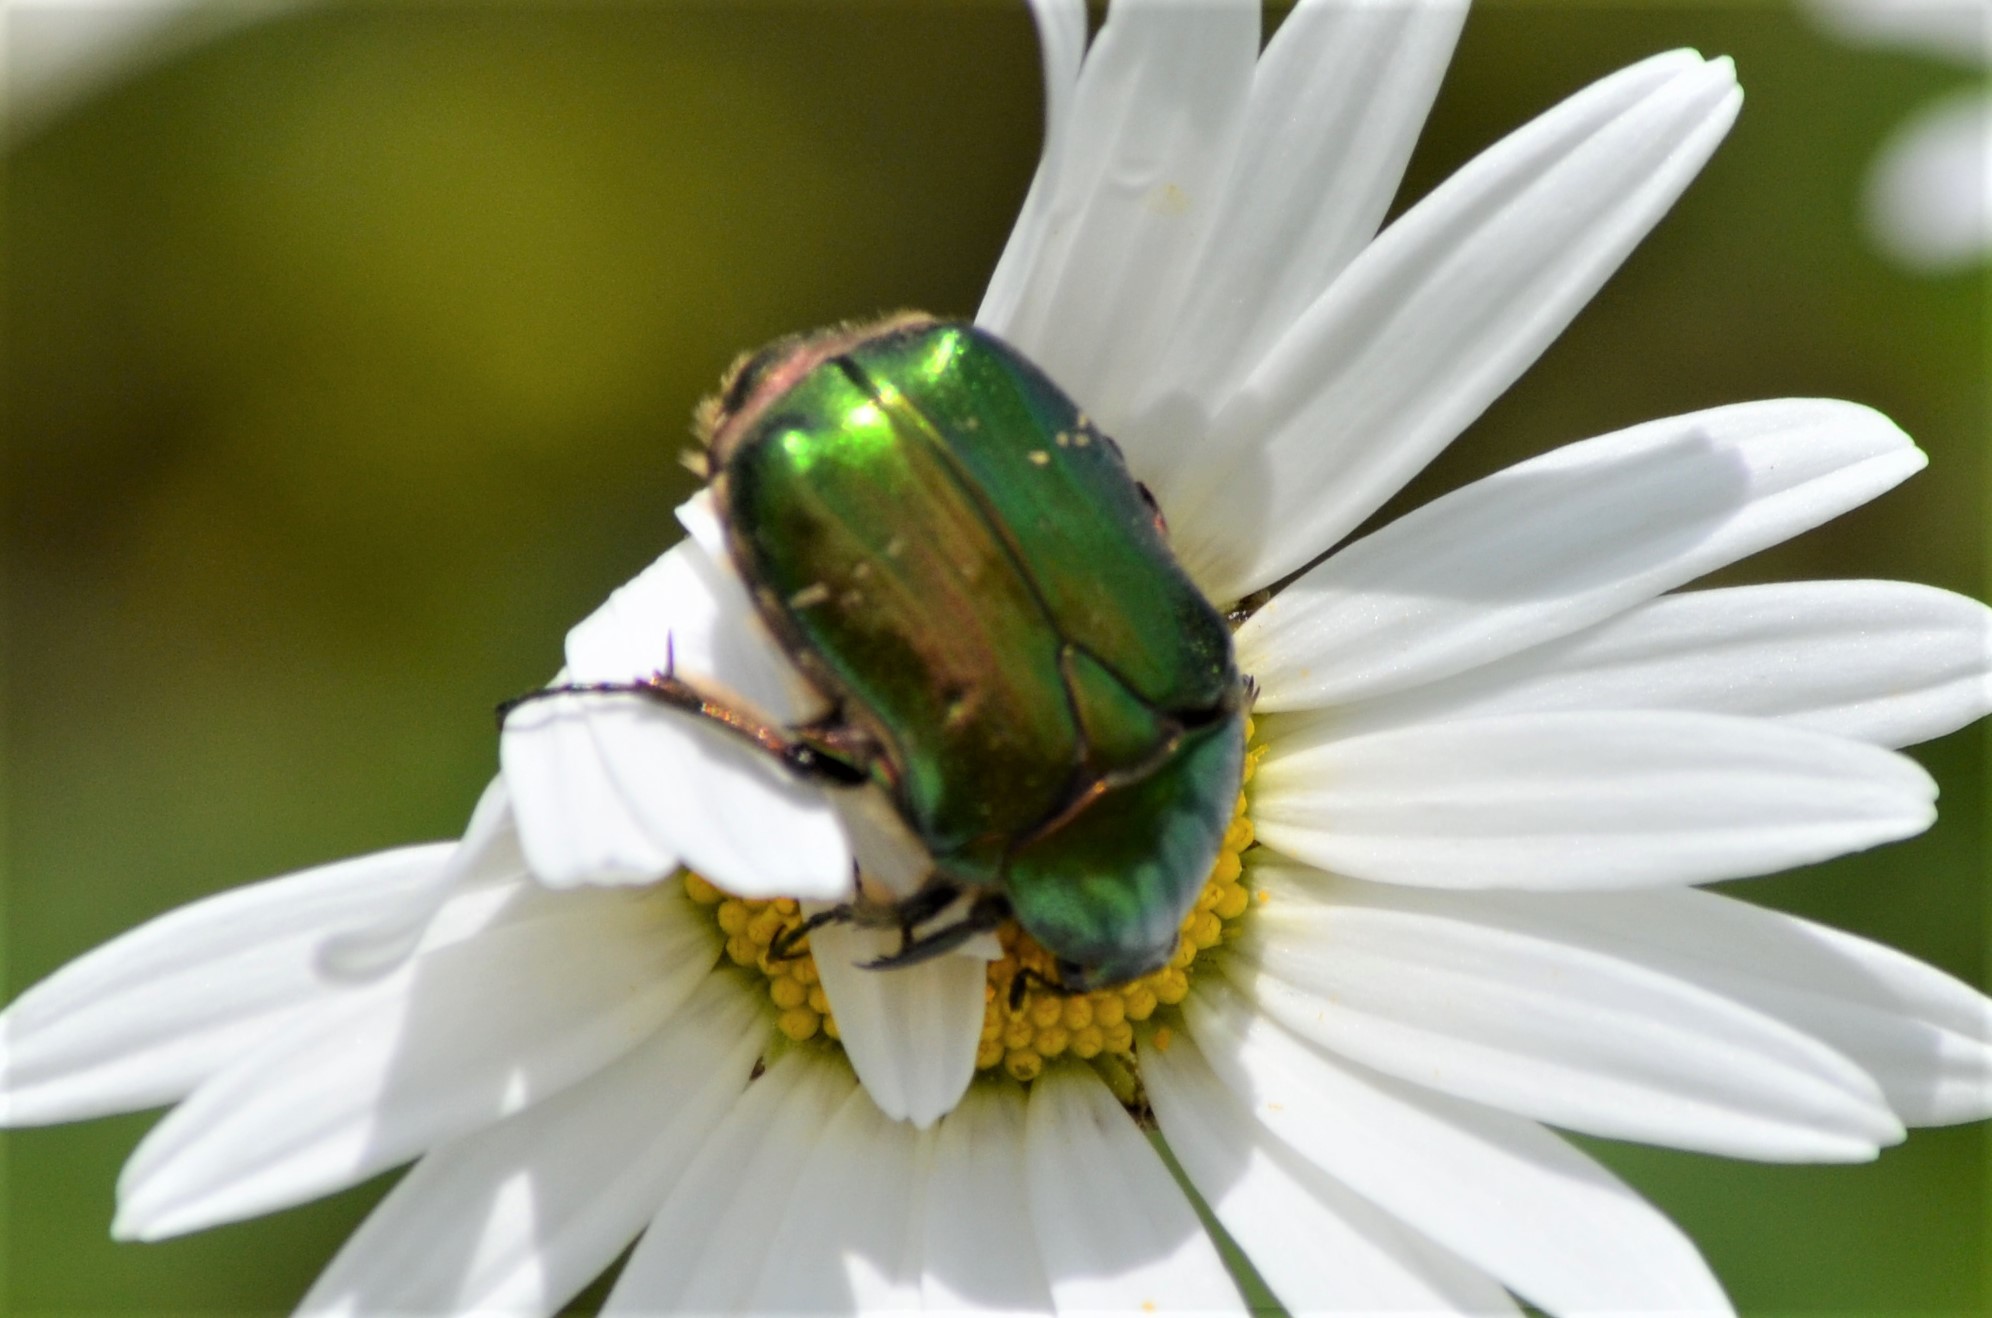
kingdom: Animalia
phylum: Arthropoda
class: Insecta
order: Coleoptera
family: Scarabaeidae
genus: Cetonia
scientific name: Cetonia aurata
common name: Rose chafer
